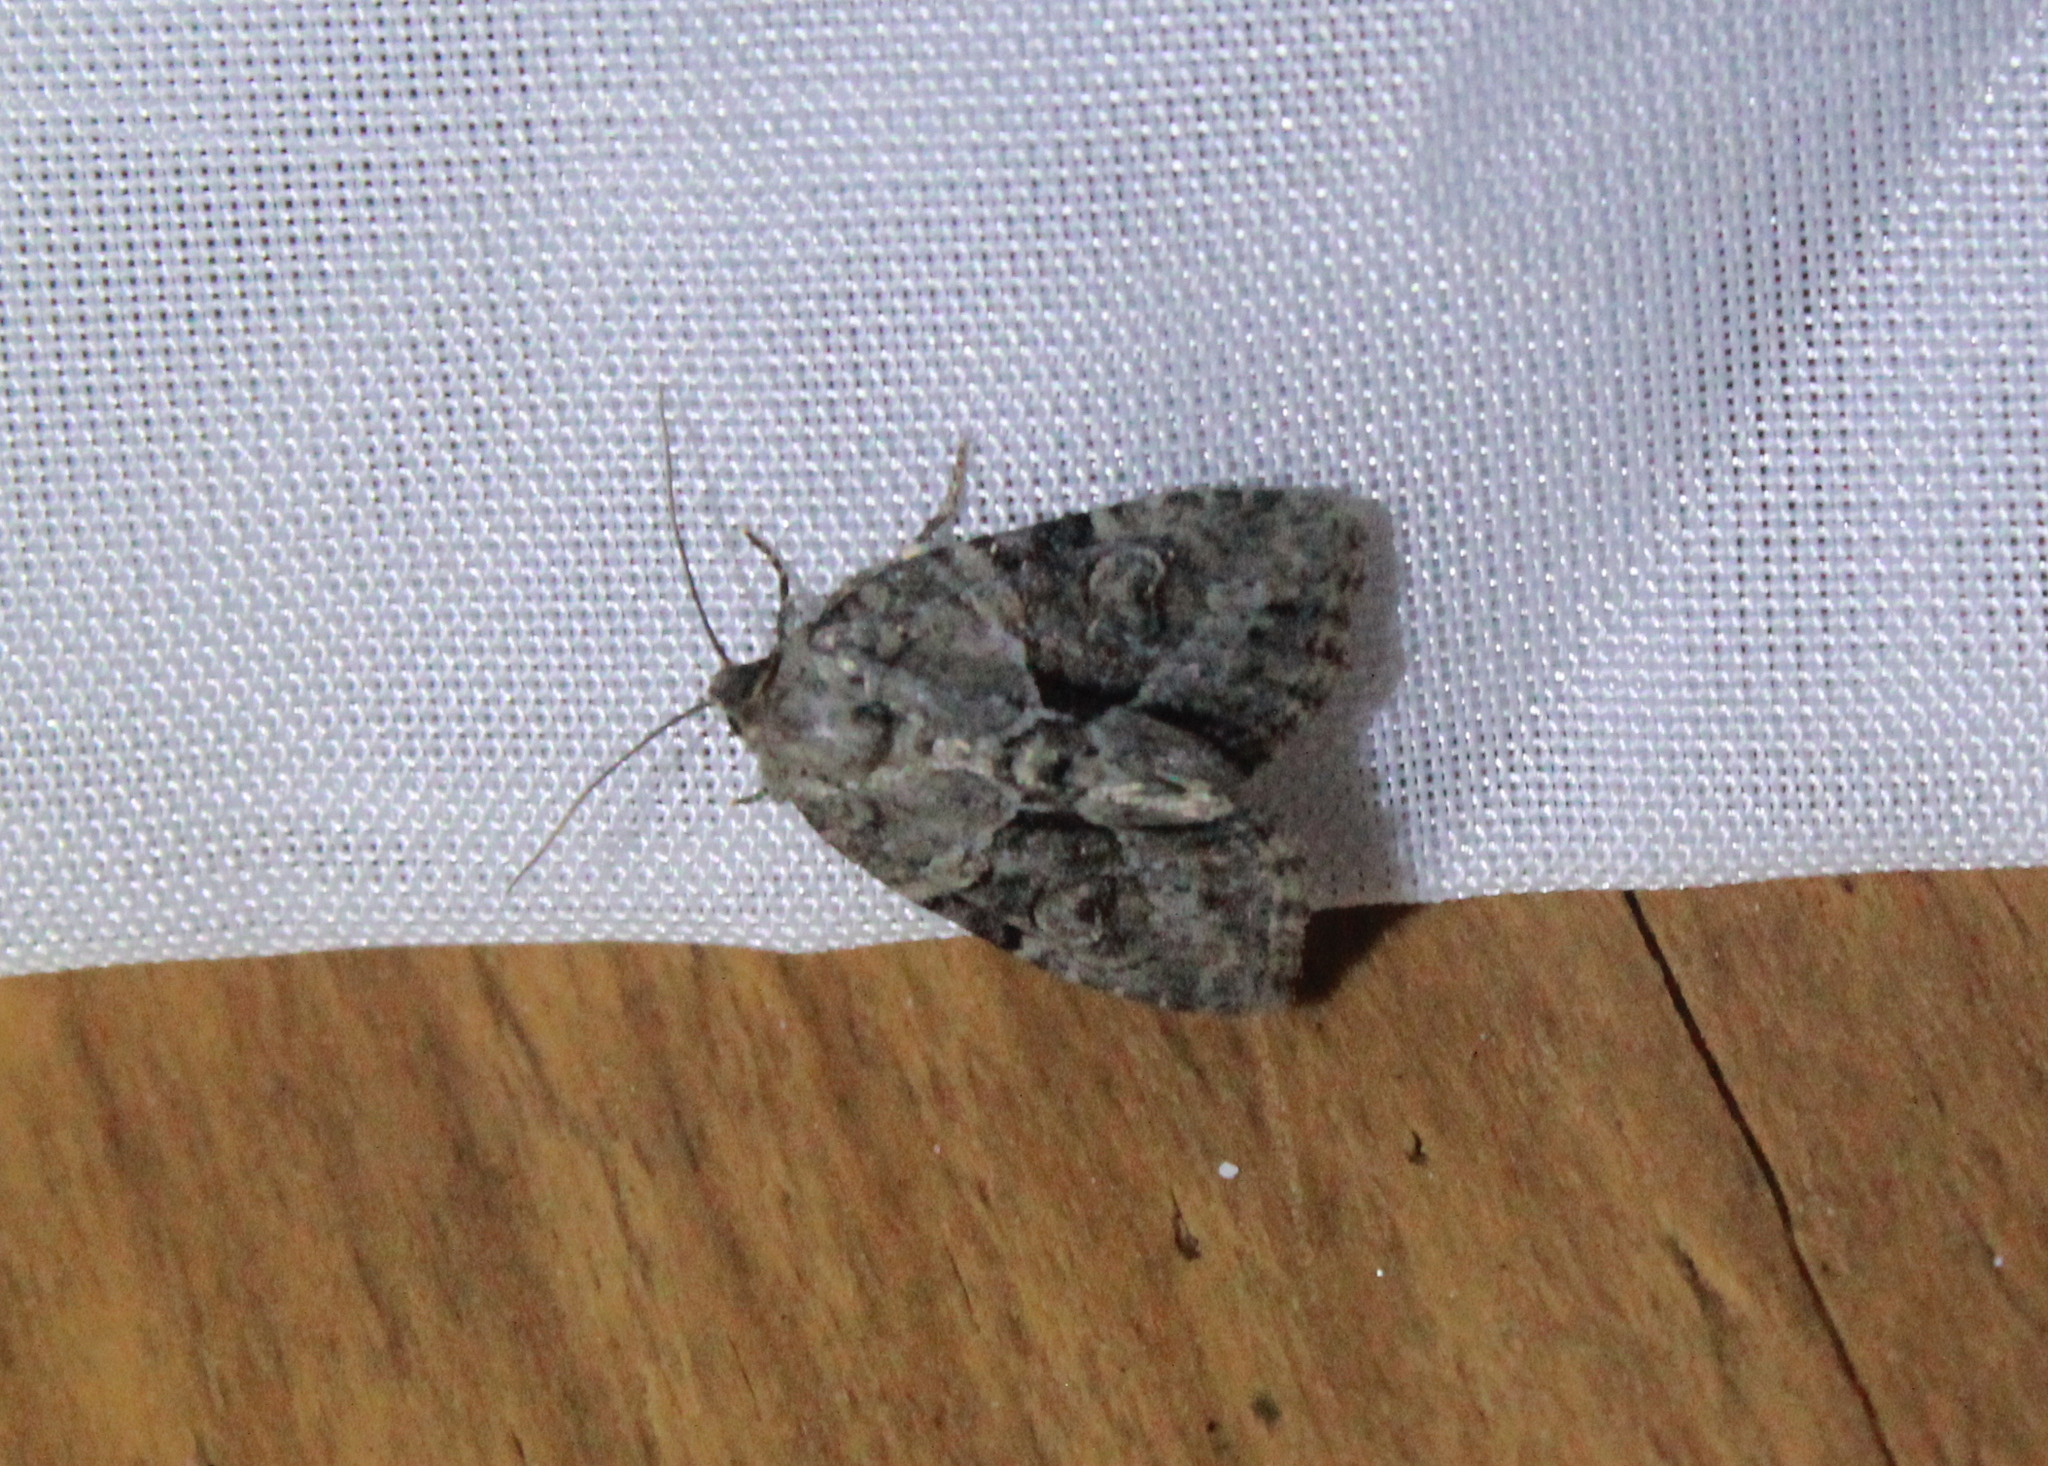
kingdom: Animalia
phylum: Arthropoda
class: Insecta
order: Lepidoptera
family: Noctuidae
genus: Neoligia
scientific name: Neoligia exhausta
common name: Exhausted brocade
